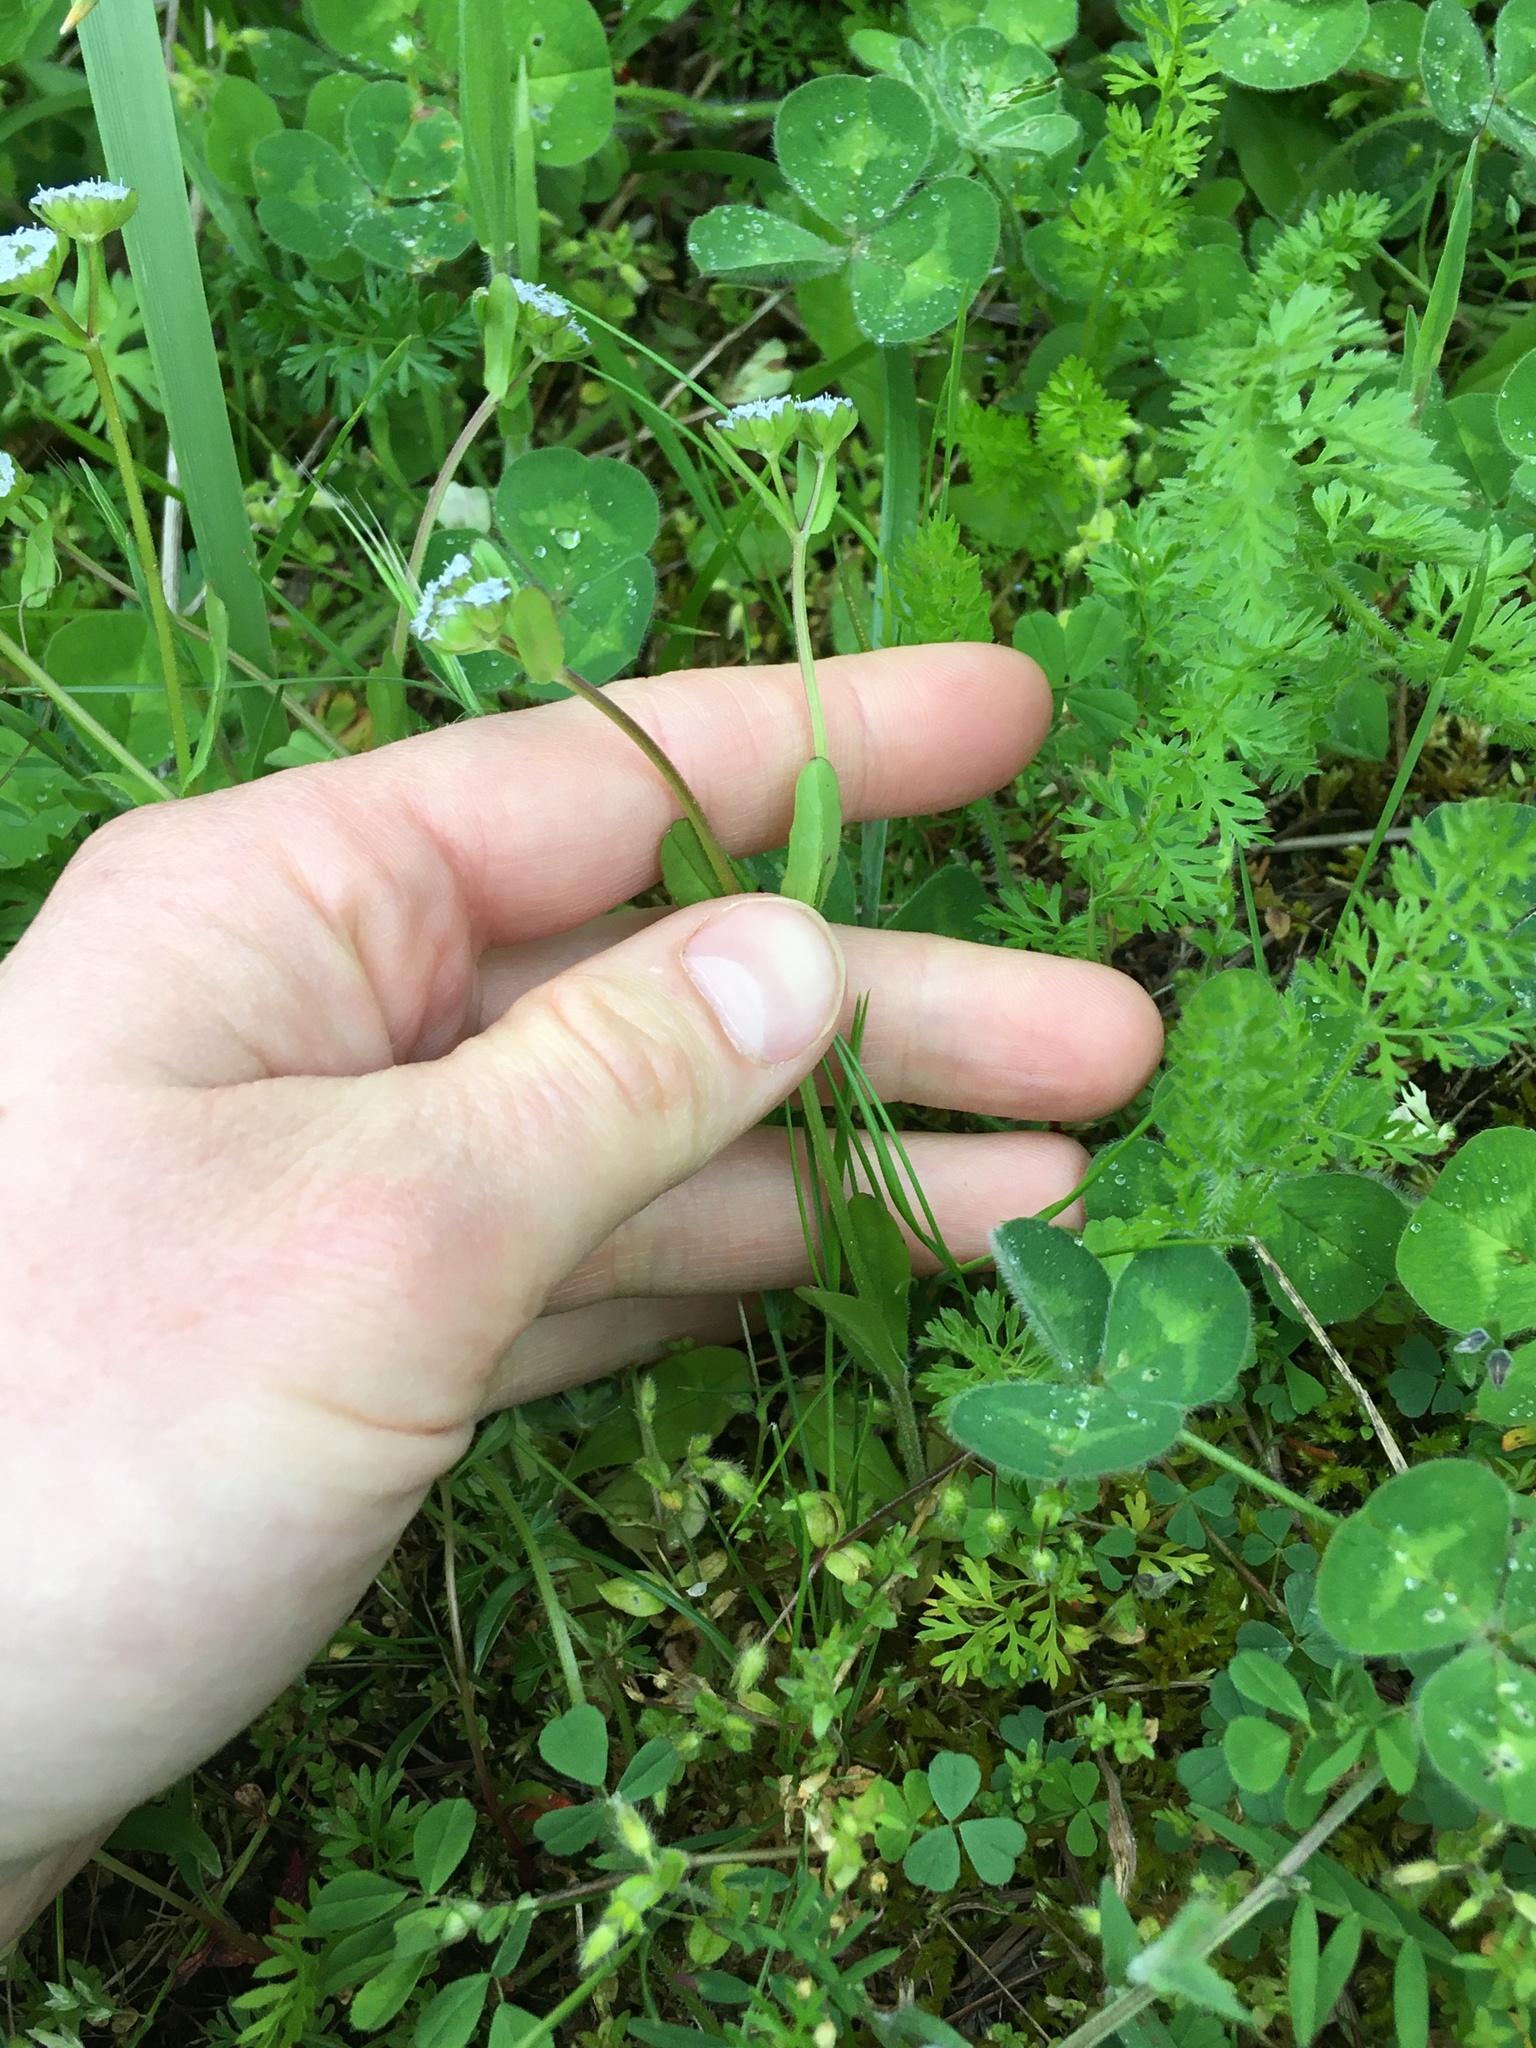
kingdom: Plantae
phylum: Tracheophyta
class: Magnoliopsida
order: Dipsacales
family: Caprifoliaceae
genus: Valerianella
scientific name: Valerianella locusta
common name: Common cornsalad
